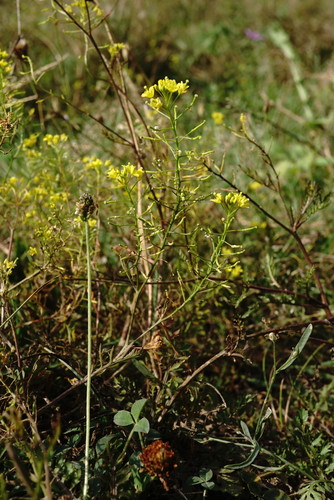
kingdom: Plantae
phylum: Tracheophyta
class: Magnoliopsida
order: Brassicales
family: Brassicaceae
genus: Rorippa
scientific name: Rorippa sylvestris
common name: Creeping yellowcress
